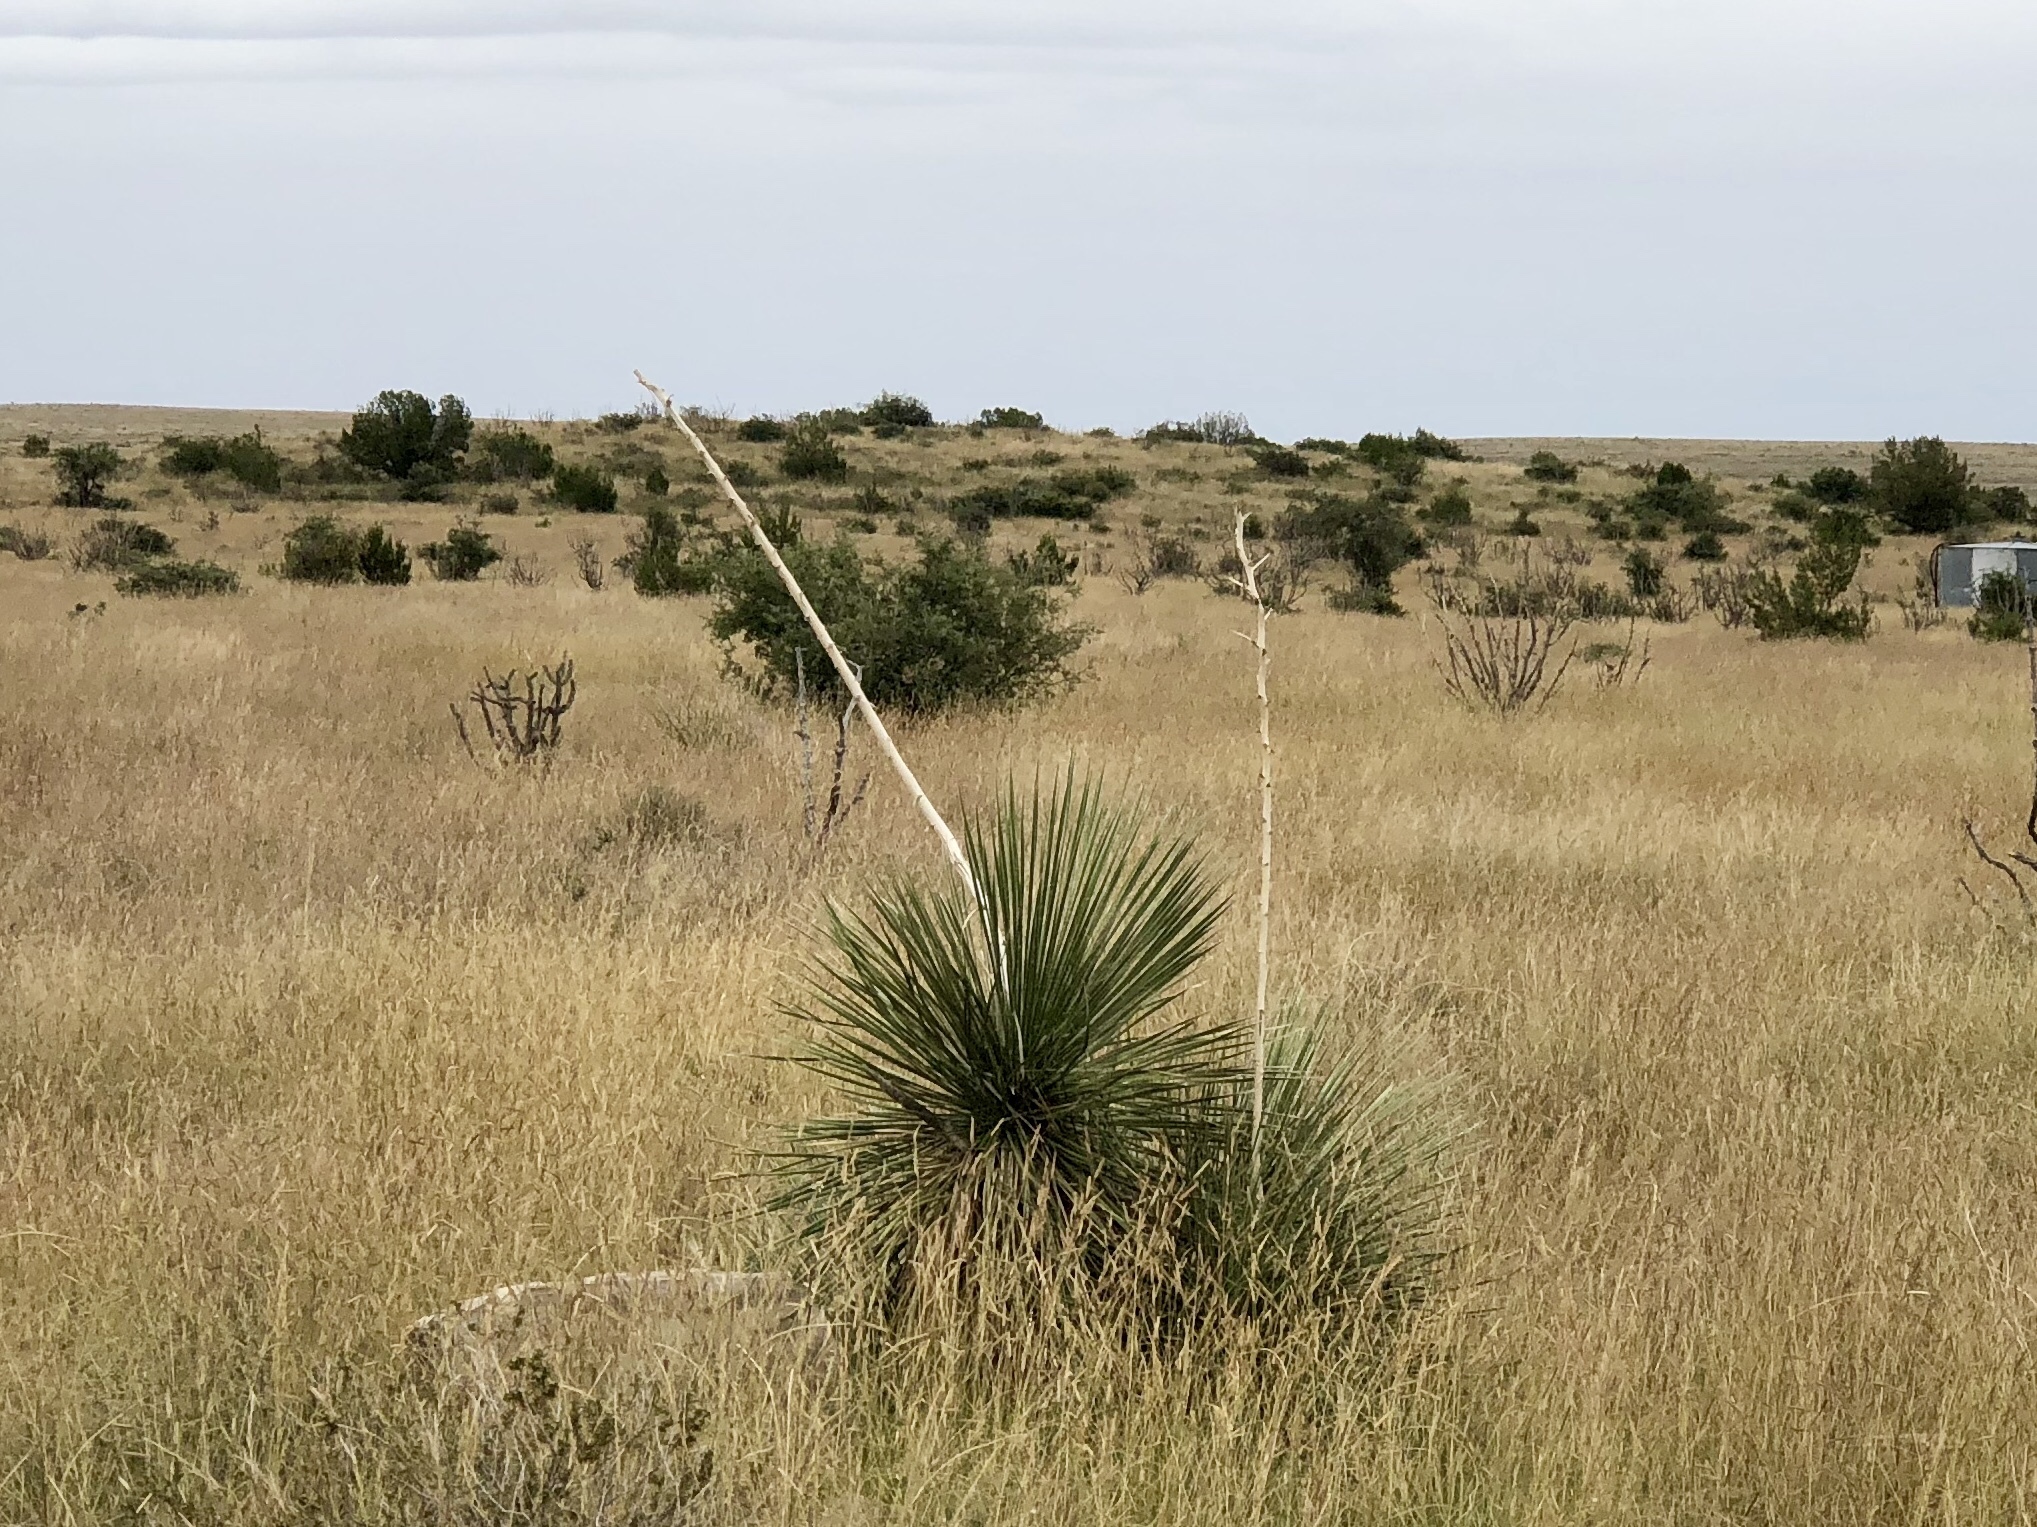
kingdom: Plantae
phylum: Tracheophyta
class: Liliopsida
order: Asparagales
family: Asparagaceae
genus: Yucca
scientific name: Yucca elata
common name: Palmella
